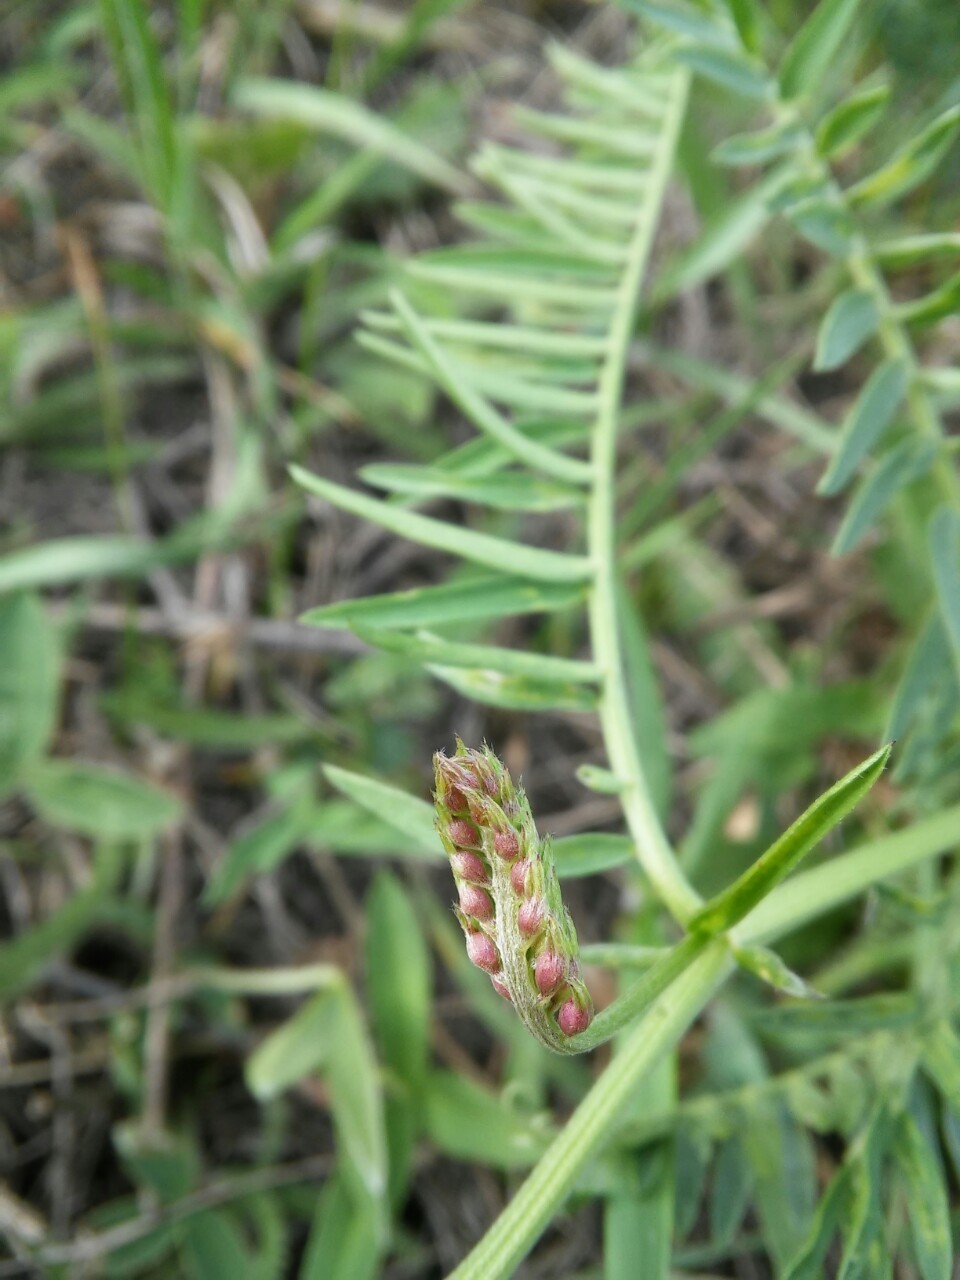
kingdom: Plantae
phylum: Tracheophyta
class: Magnoliopsida
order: Fabales
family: Fabaceae
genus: Vicia
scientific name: Vicia cracca
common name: Bird vetch
